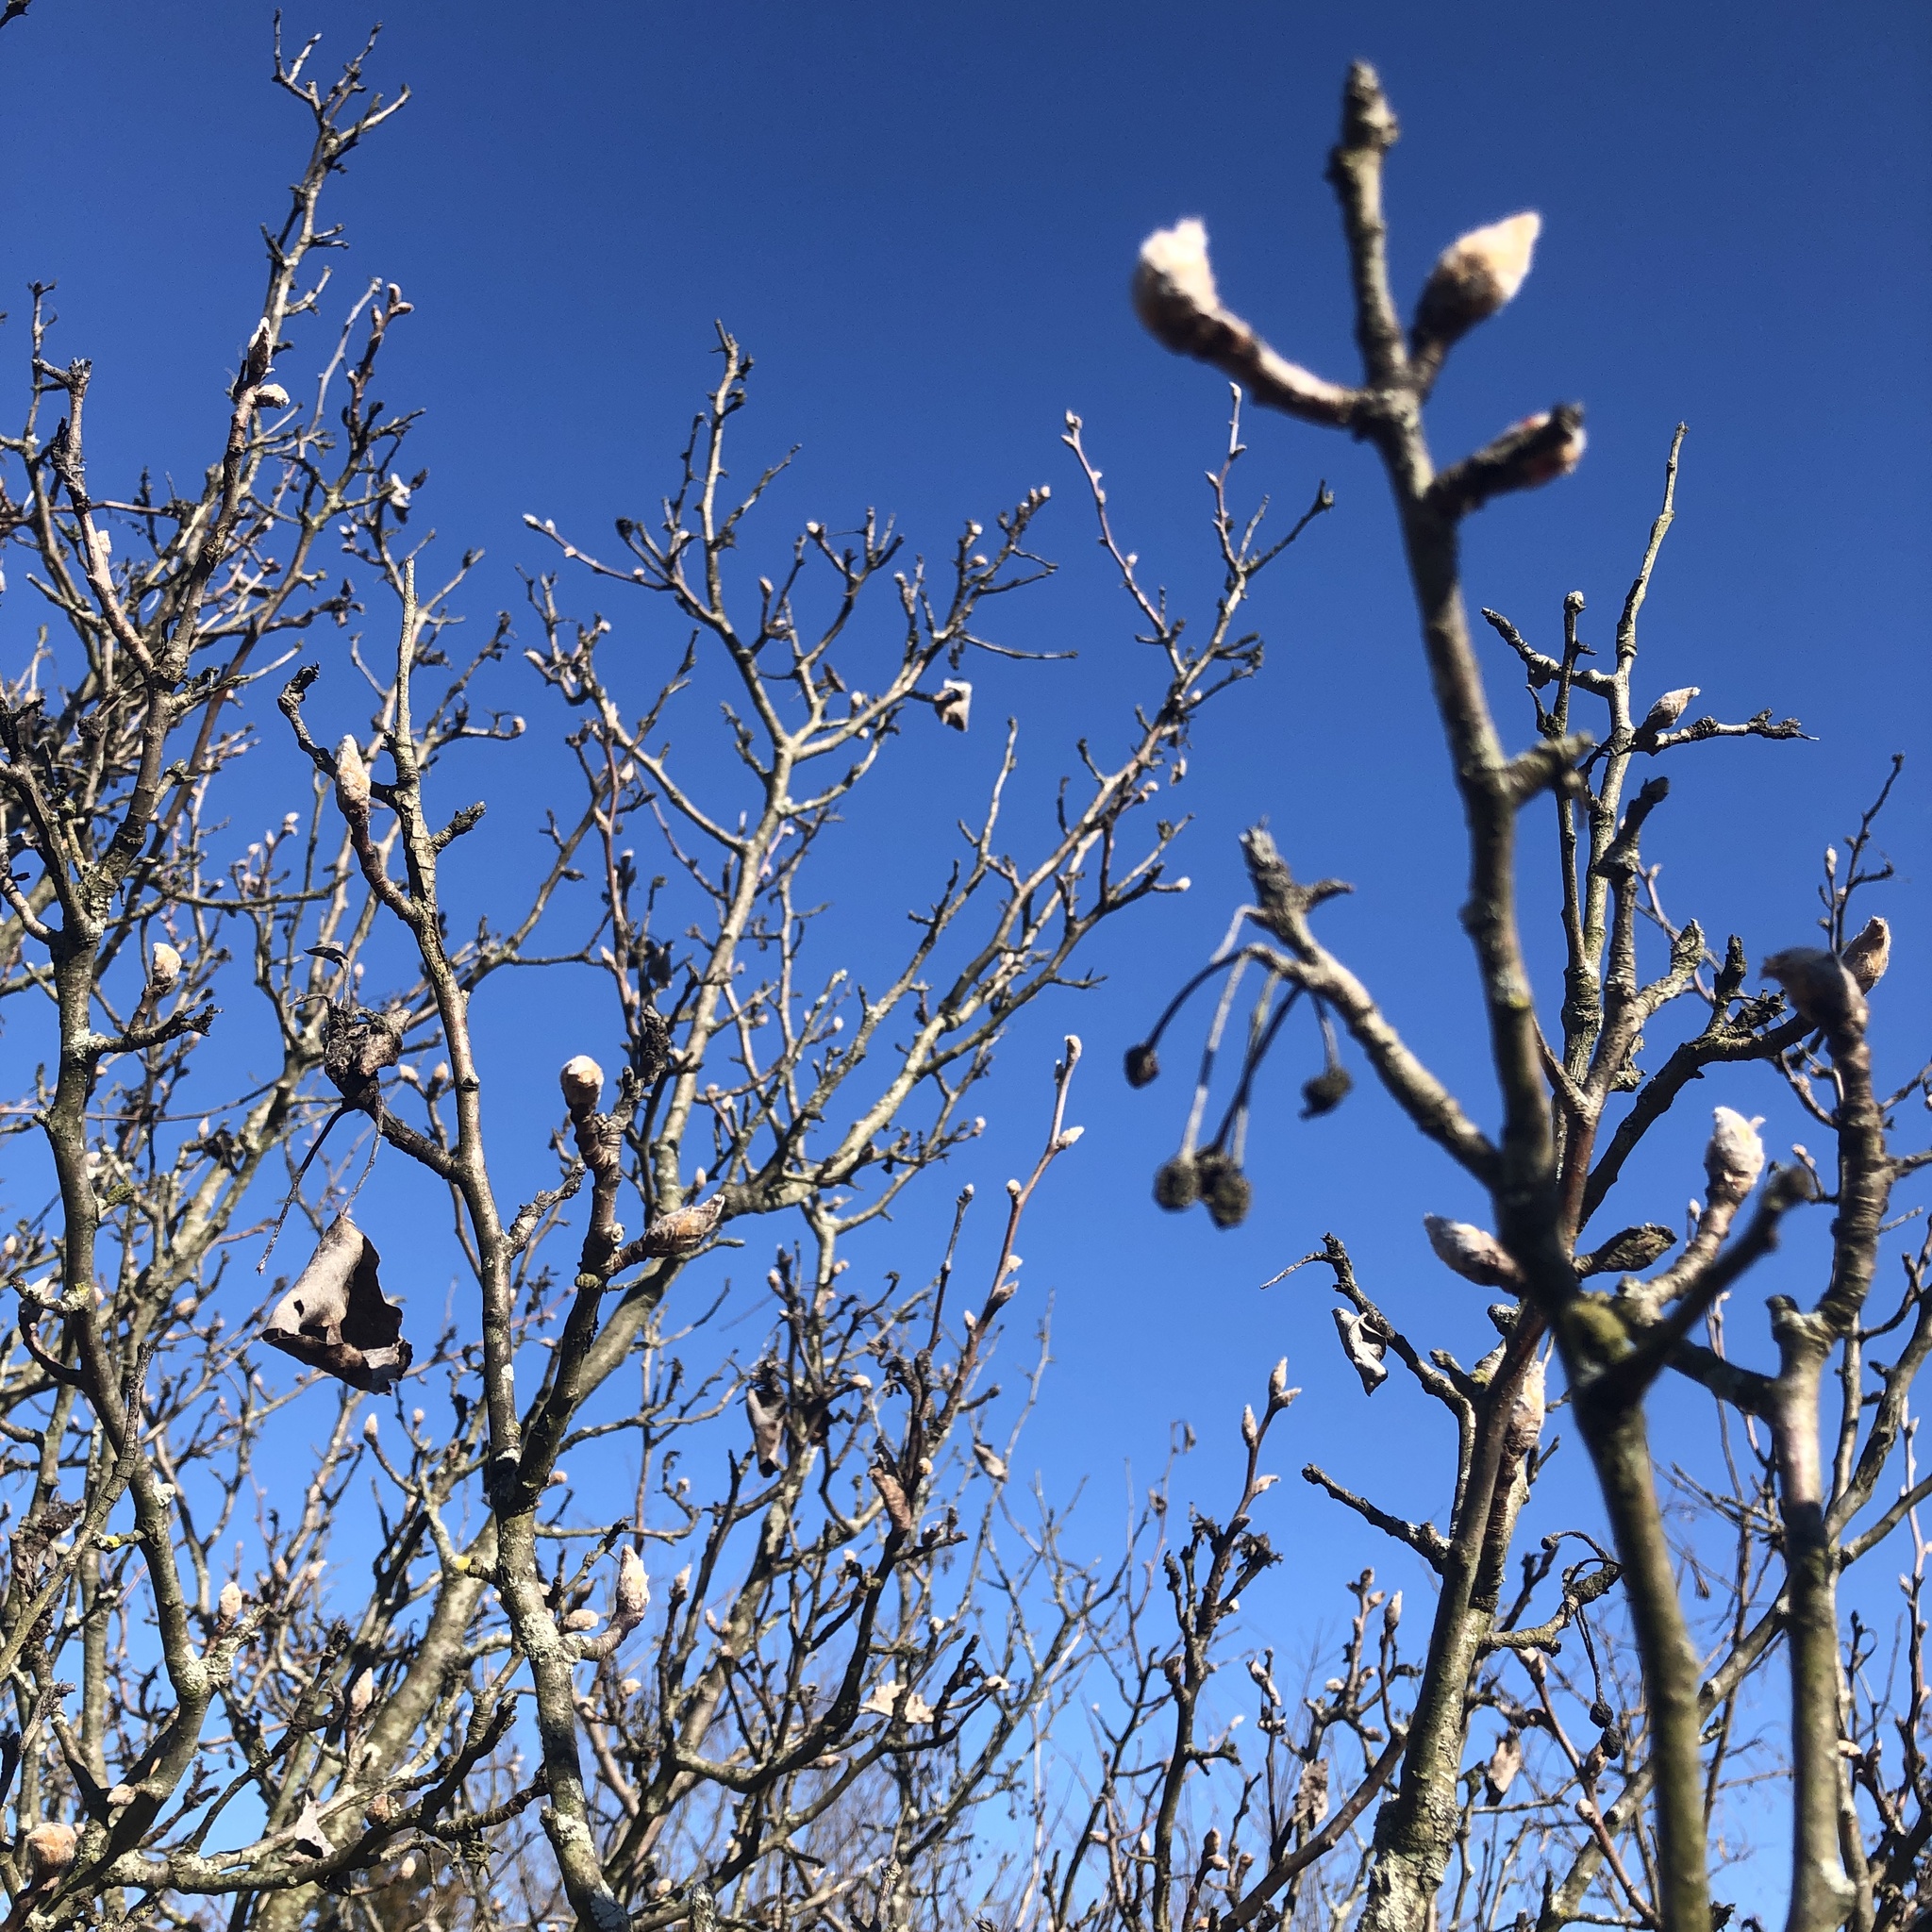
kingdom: Plantae
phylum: Tracheophyta
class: Magnoliopsida
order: Rosales
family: Rosaceae
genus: Pyrus
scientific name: Pyrus calleryana
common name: Callery pear
